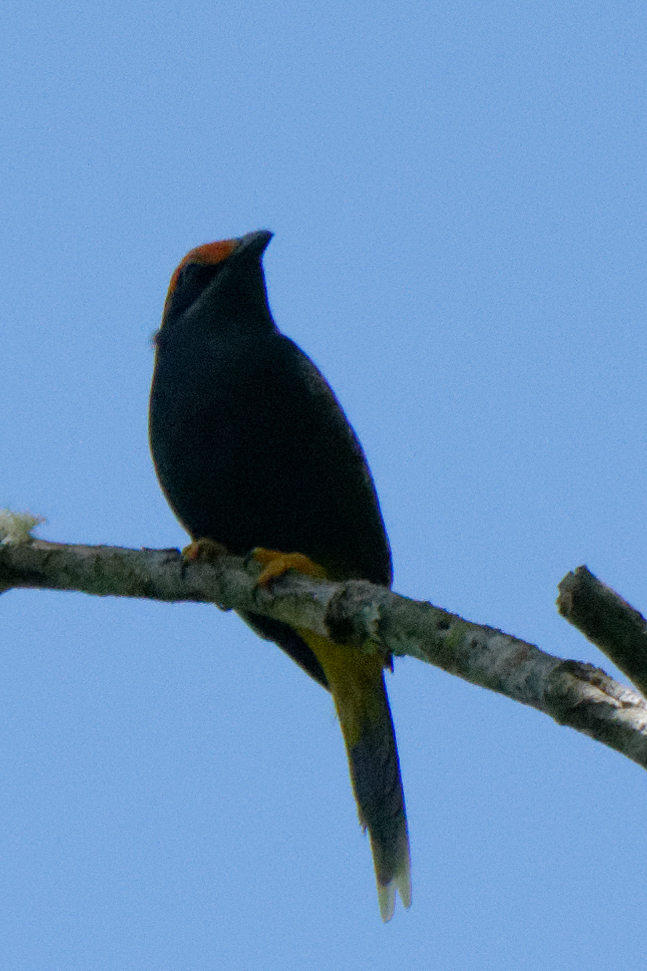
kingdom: Animalia
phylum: Chordata
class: Aves
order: Passeriformes
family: Sturnidae
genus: Enodes
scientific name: Enodes erythrophris
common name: Fiery-browed starling
